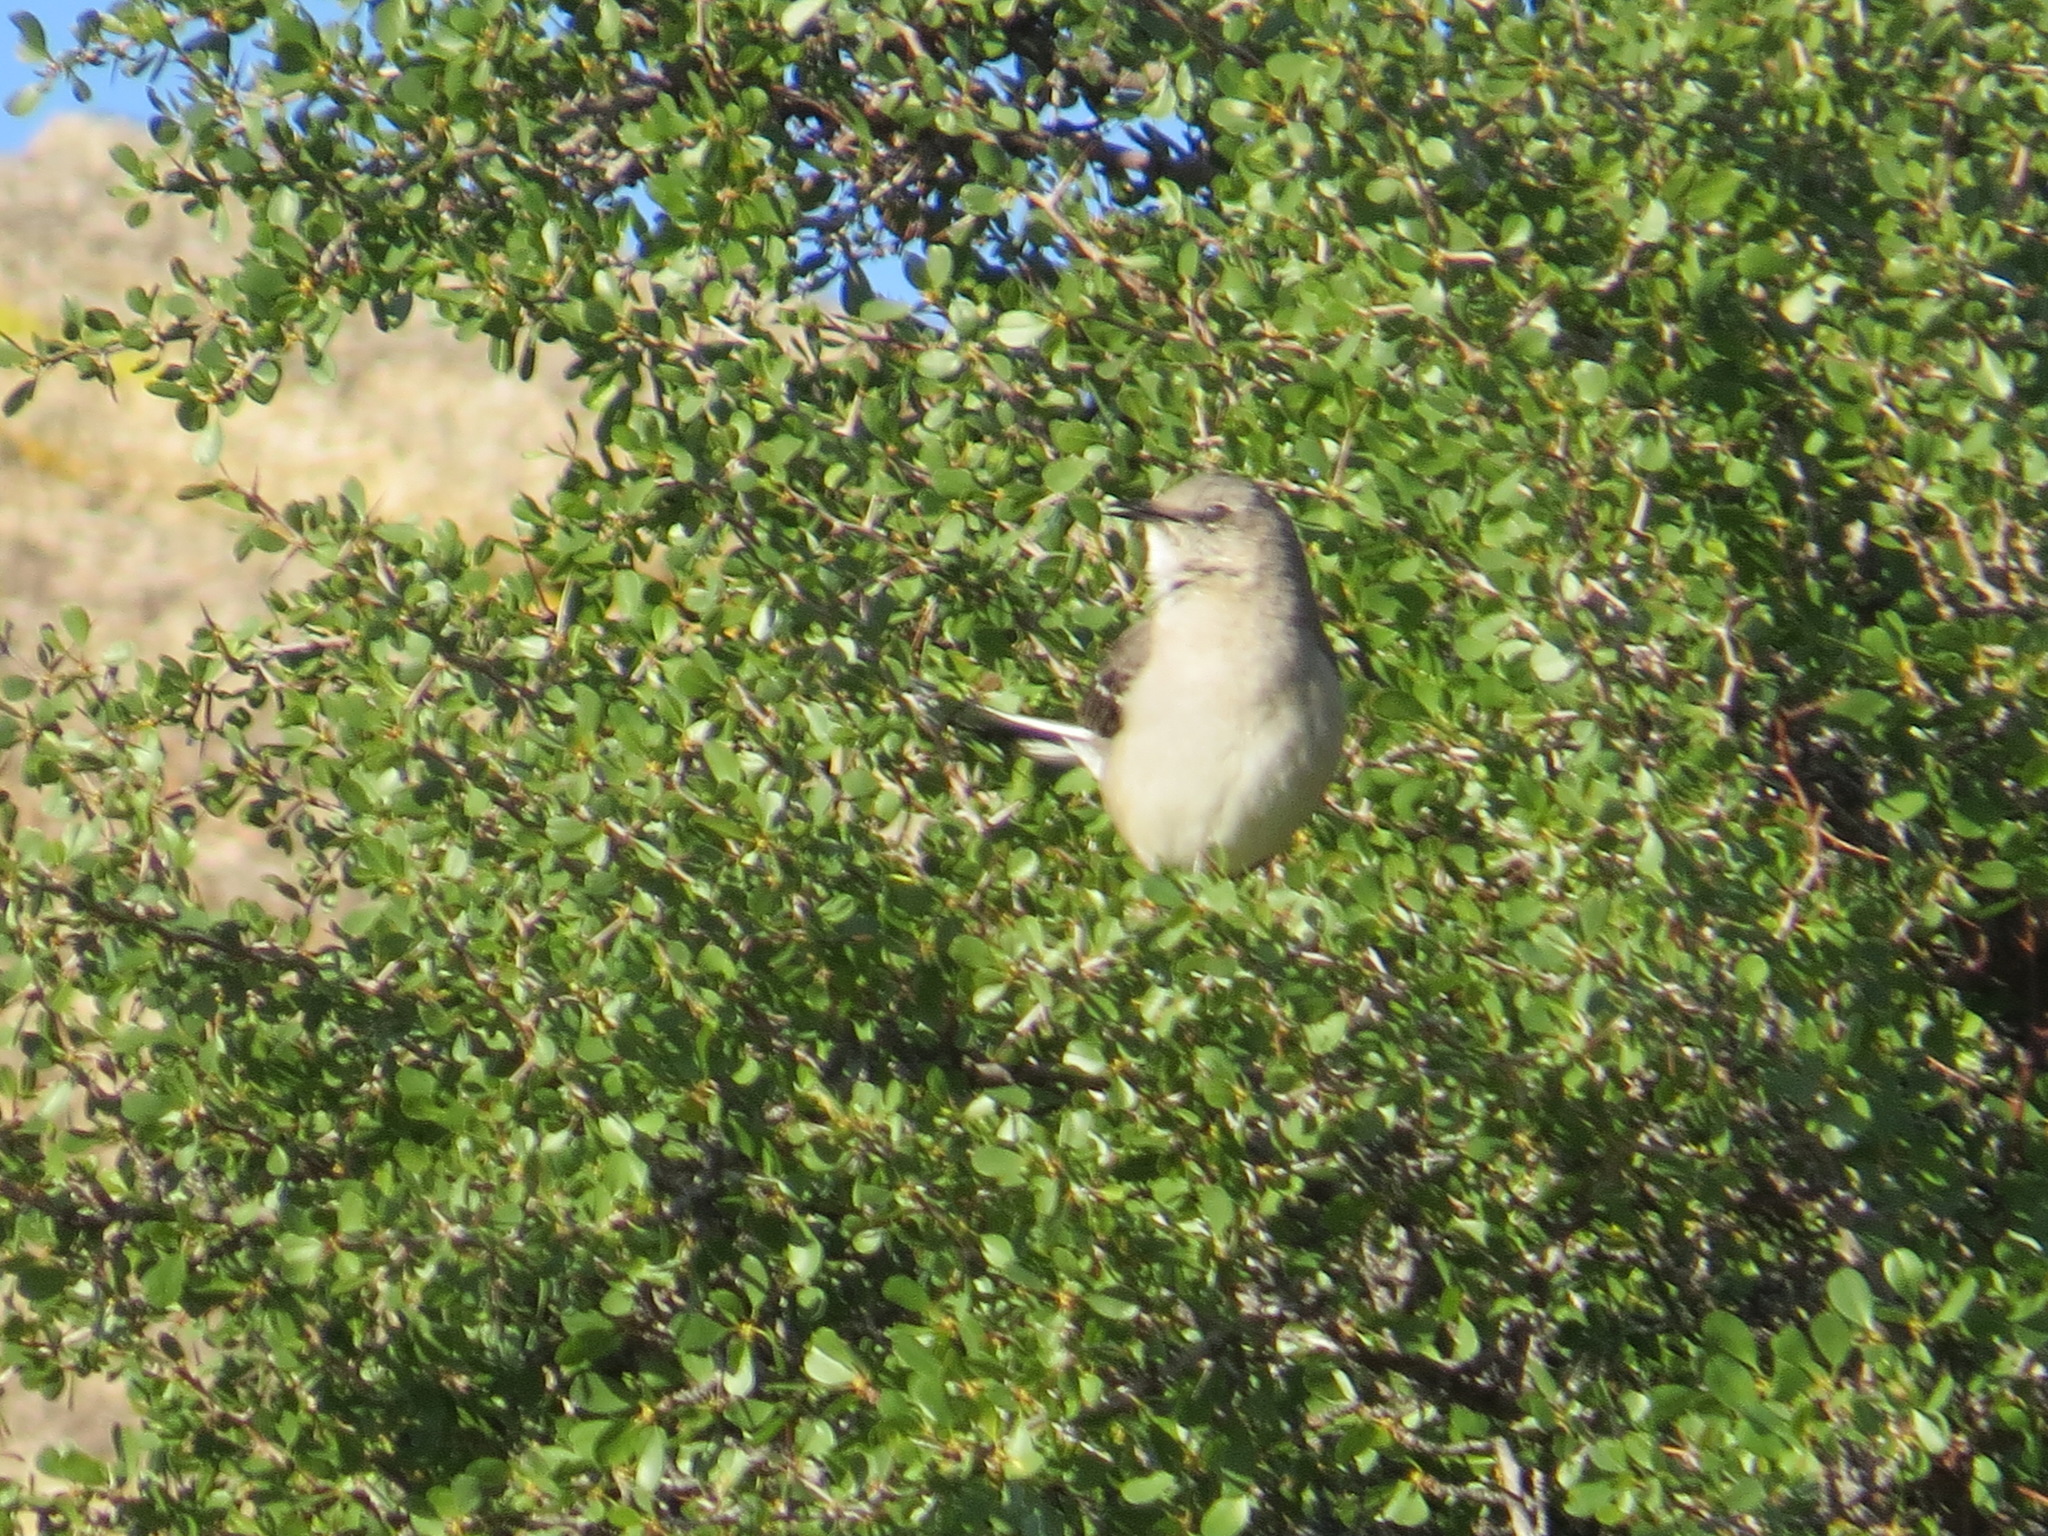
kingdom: Animalia
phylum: Chordata
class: Aves
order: Passeriformes
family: Mimidae
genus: Mimus
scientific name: Mimus polyglottos
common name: Northern mockingbird
